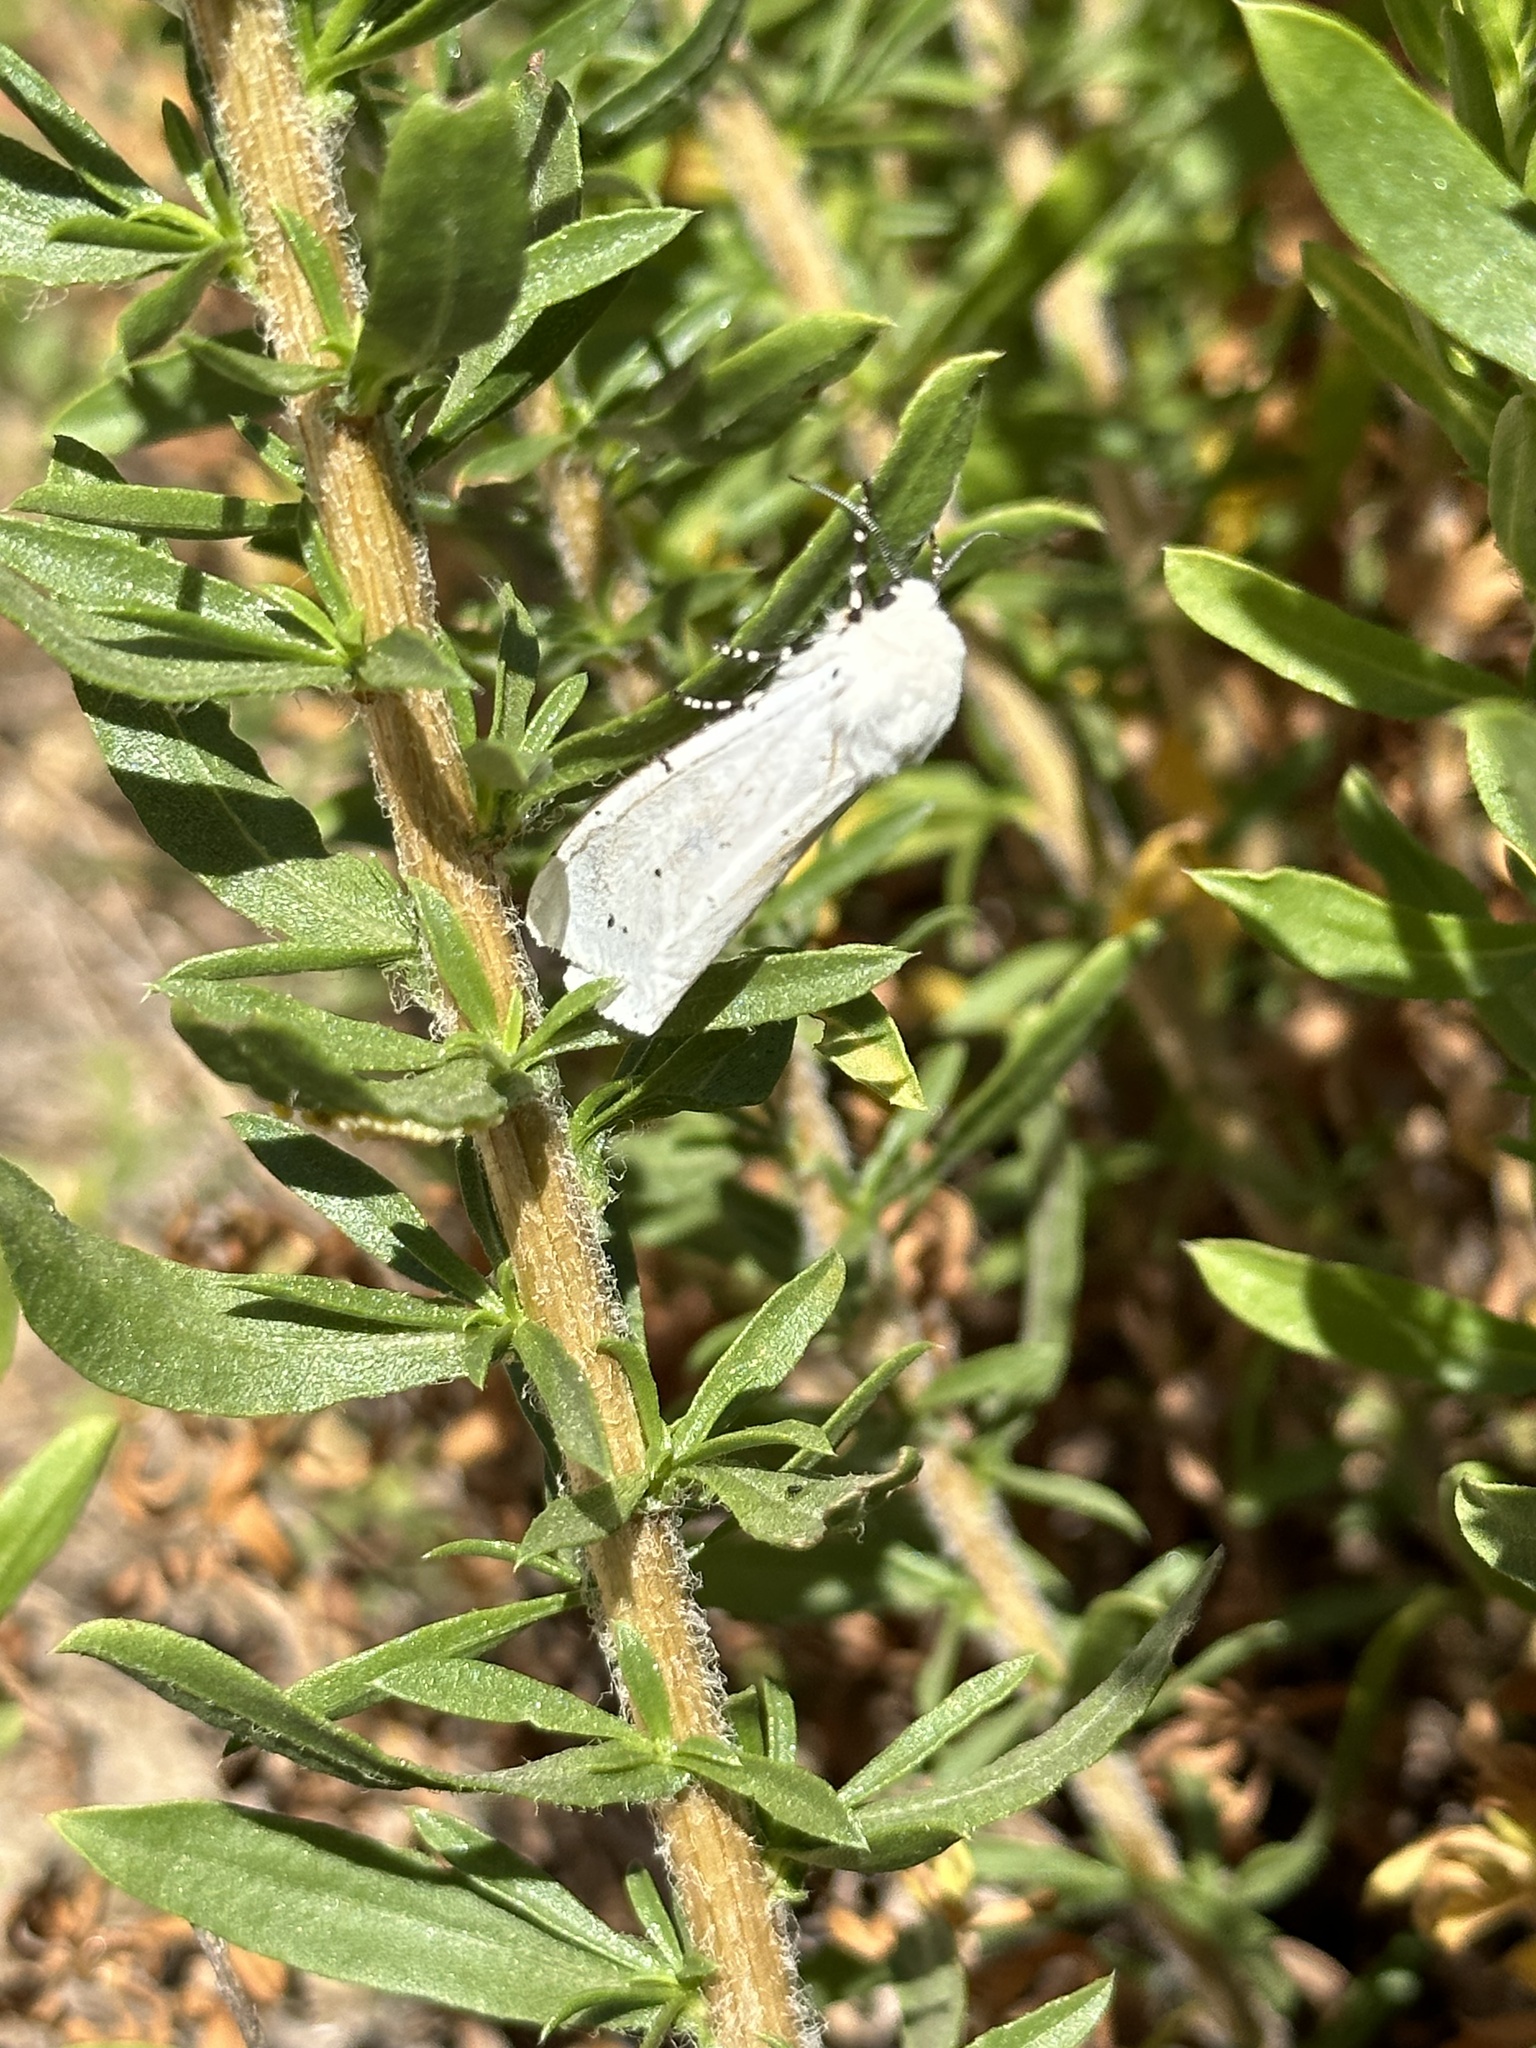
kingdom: Animalia
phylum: Arthropoda
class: Insecta
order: Lepidoptera
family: Erebidae
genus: Estigmene
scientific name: Estigmene acrea
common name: Salt marsh moth
